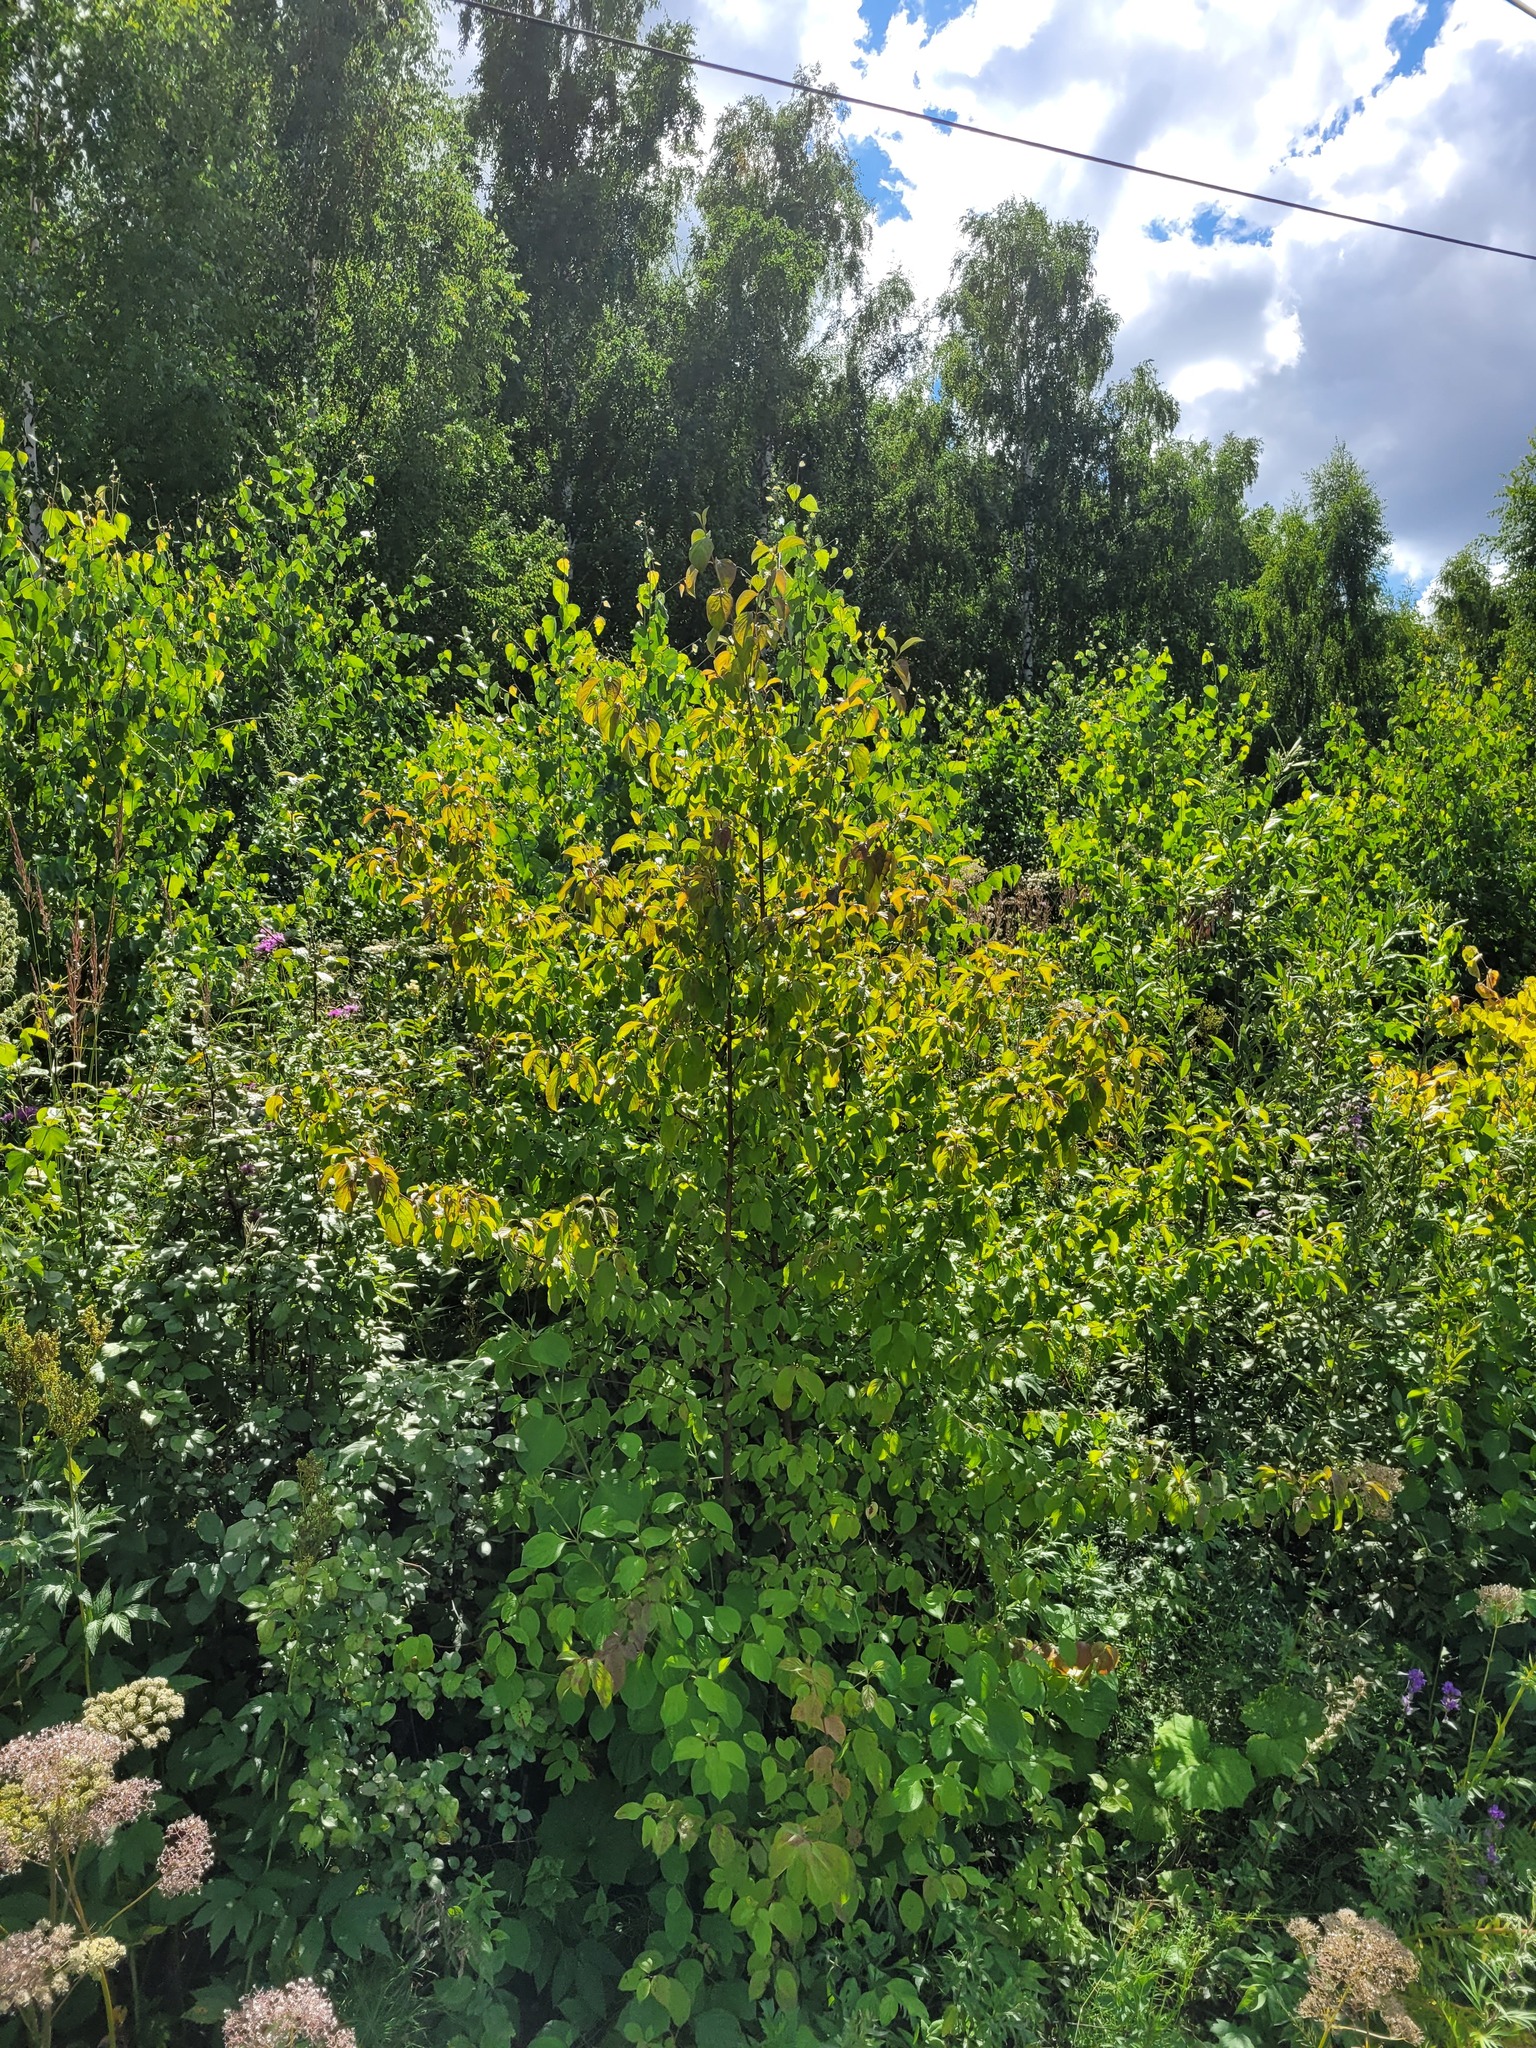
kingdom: Plantae
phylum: Tracheophyta
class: Magnoliopsida
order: Cornales
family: Cornaceae
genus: Cornus
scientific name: Cornus sanguinea
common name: Dogwood
